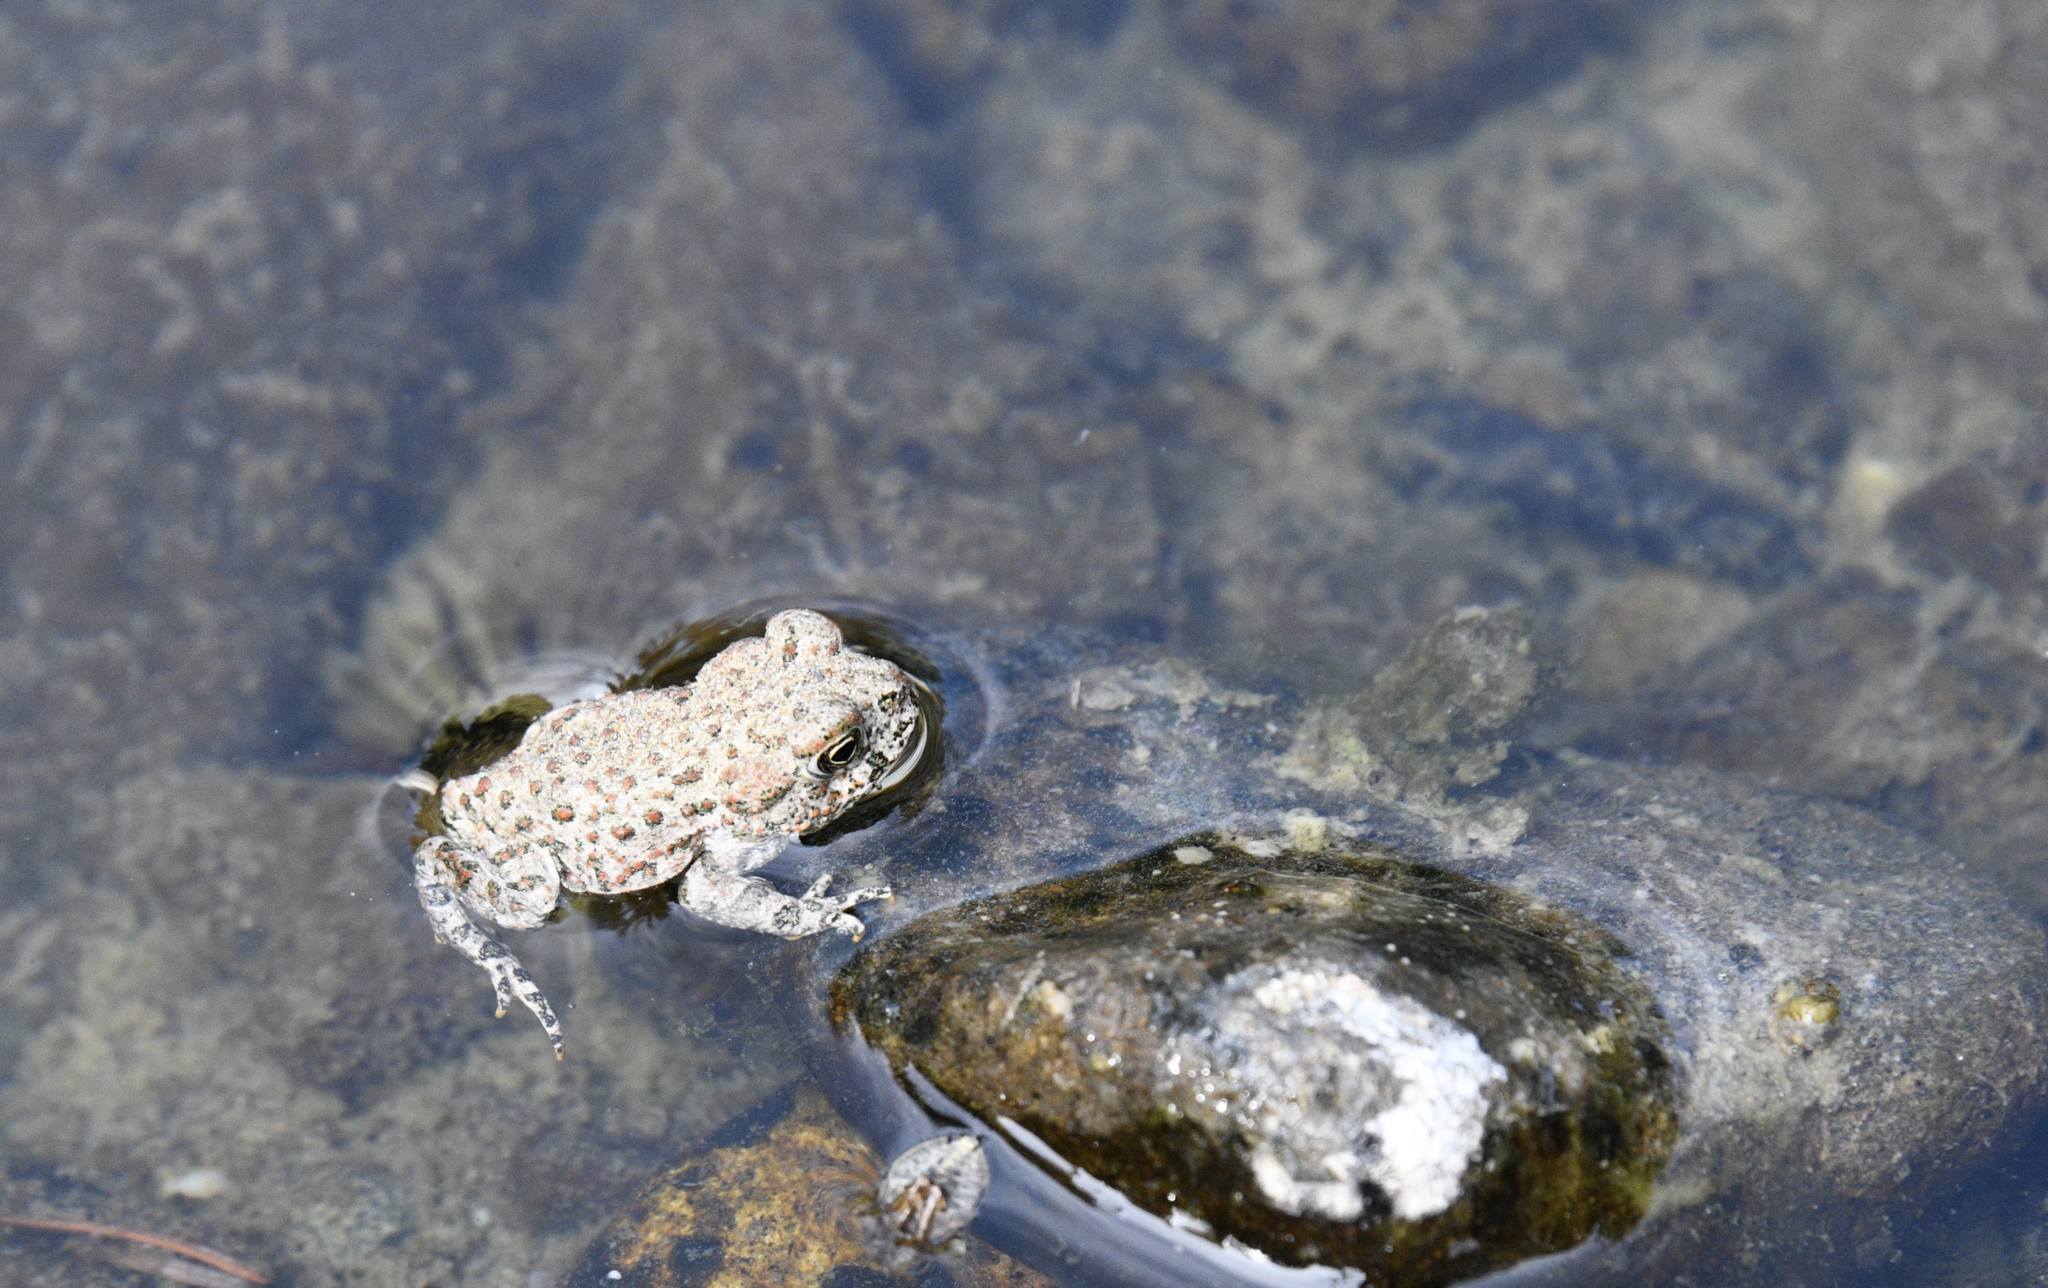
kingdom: Animalia
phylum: Chordata
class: Amphibia
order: Anura
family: Bufonidae
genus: Anaxyrus
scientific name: Anaxyrus boreas
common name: Western toad
